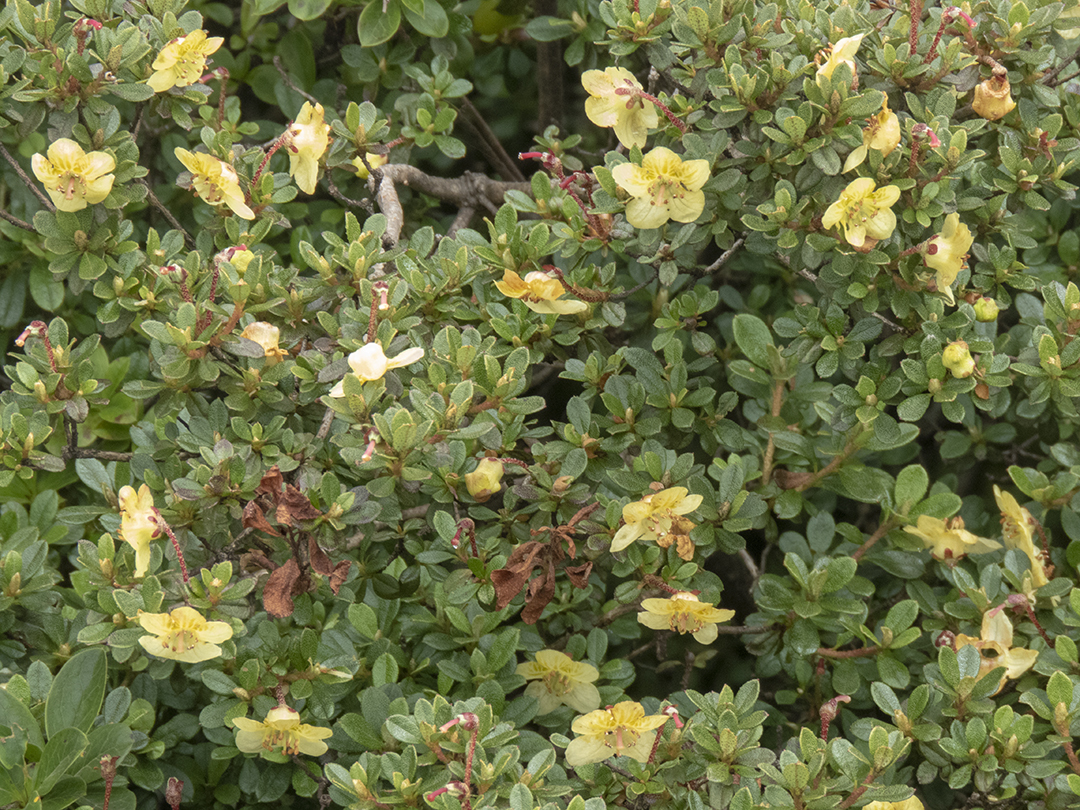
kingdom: Plantae
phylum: Tracheophyta
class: Magnoliopsida
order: Ericales
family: Ericaceae
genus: Rhododendron
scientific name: Rhododendron lepidotum
